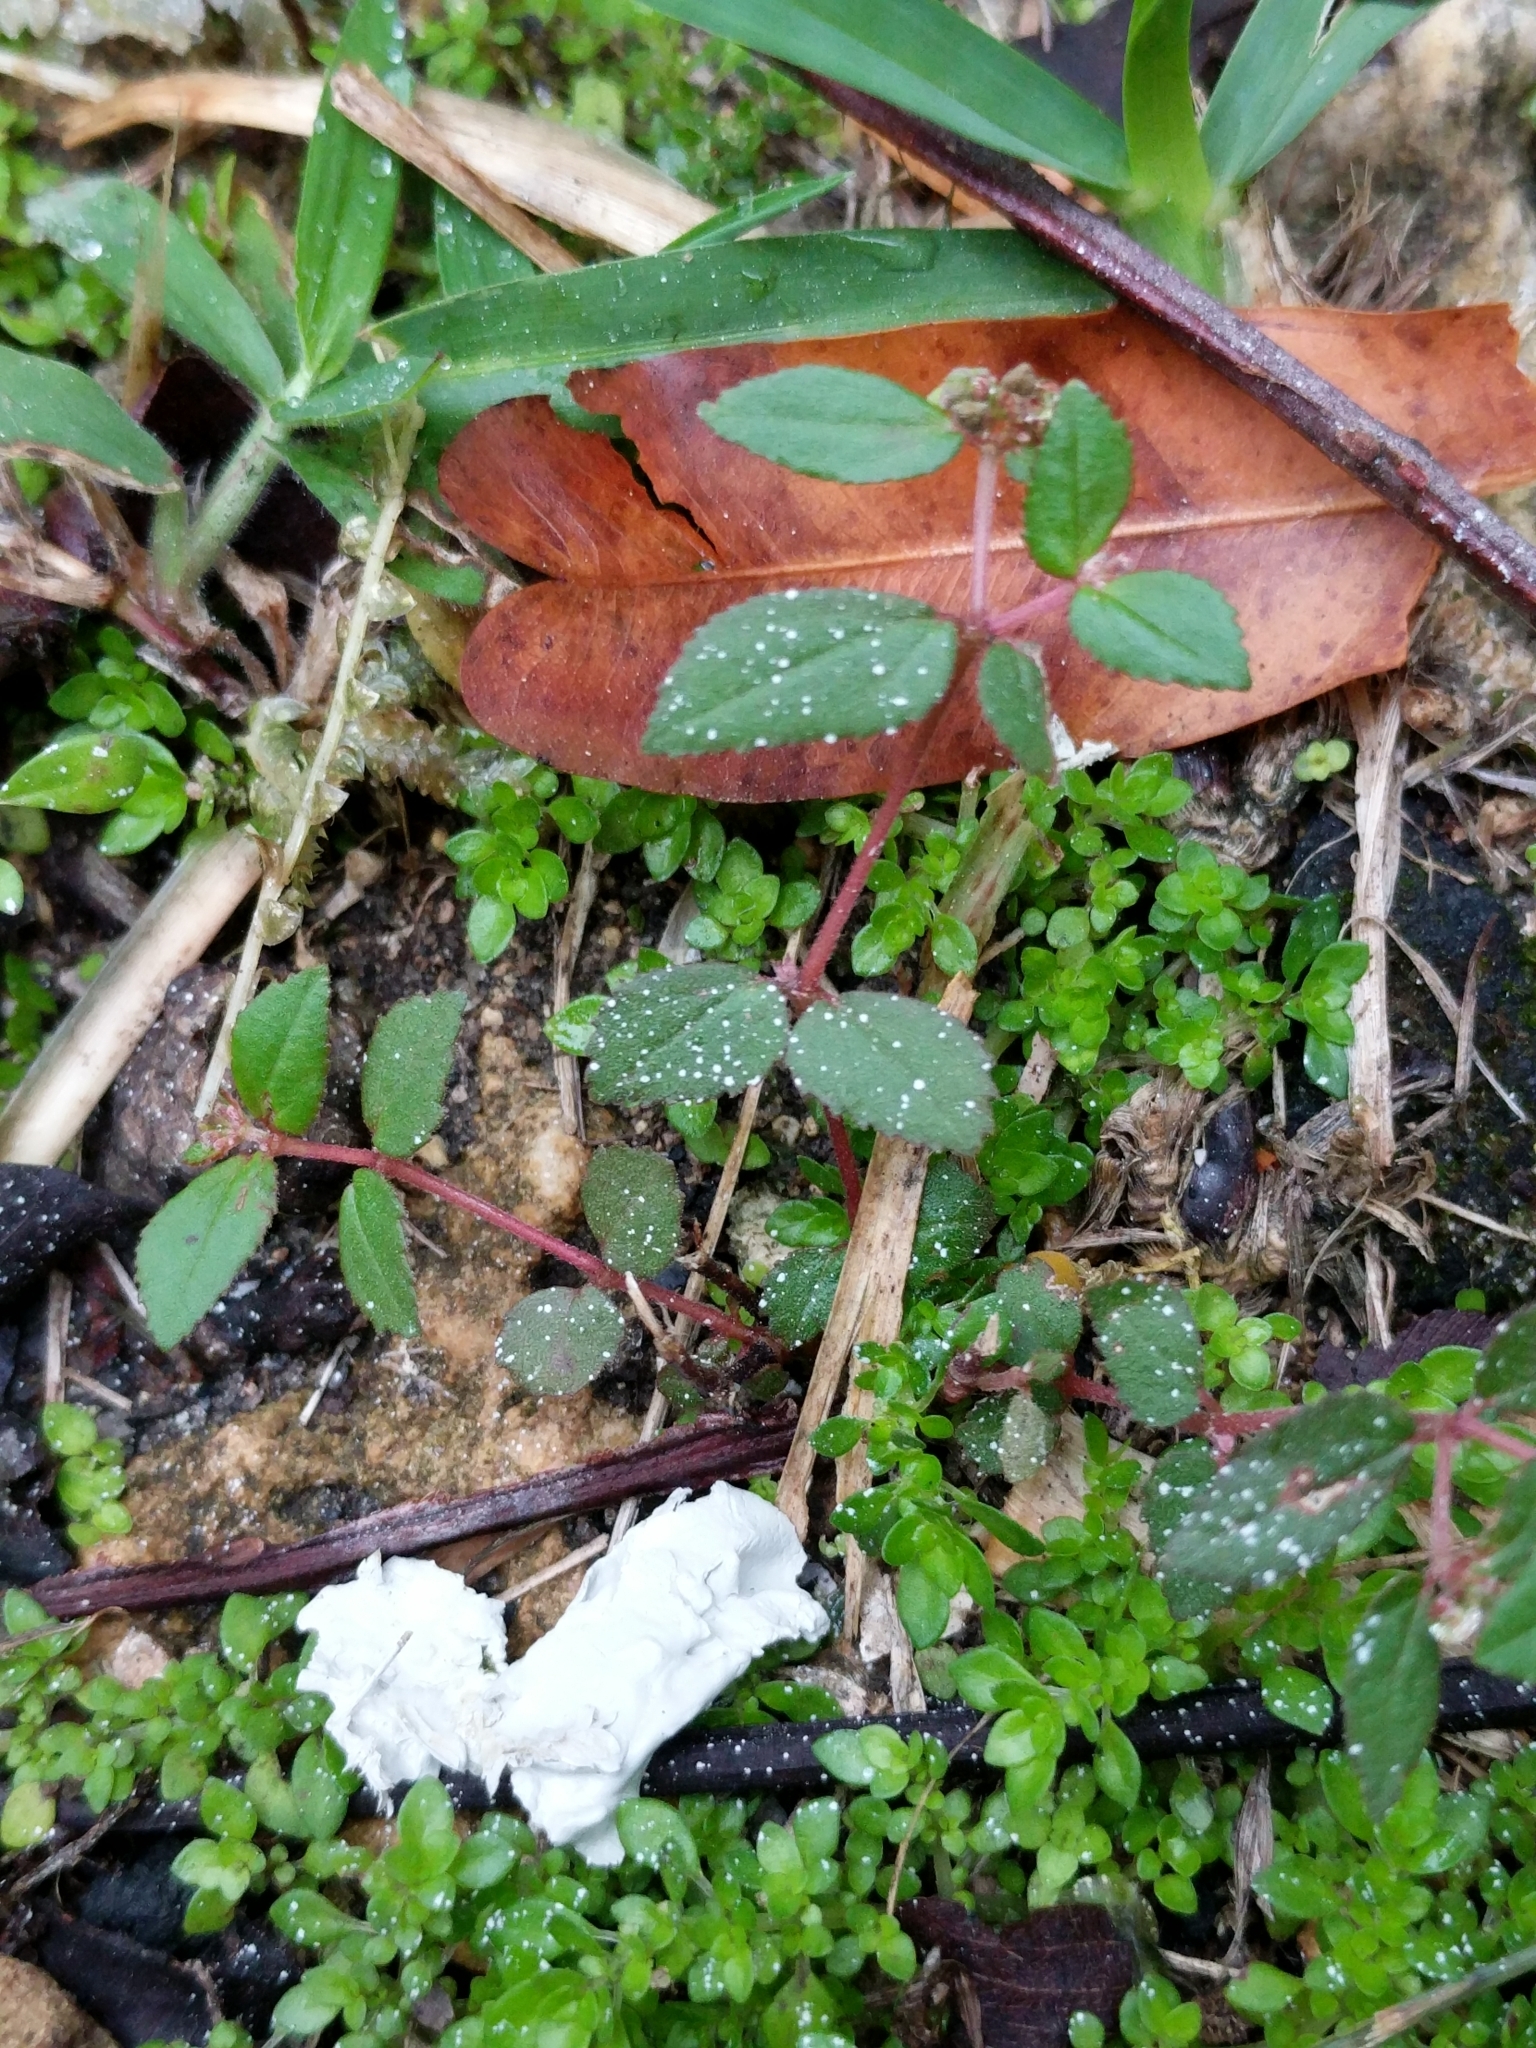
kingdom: Plantae
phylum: Tracheophyta
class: Magnoliopsida
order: Malpighiales
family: Euphorbiaceae
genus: Euphorbia
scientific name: Euphorbia ophthalmica
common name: Florida hammock sandmat
